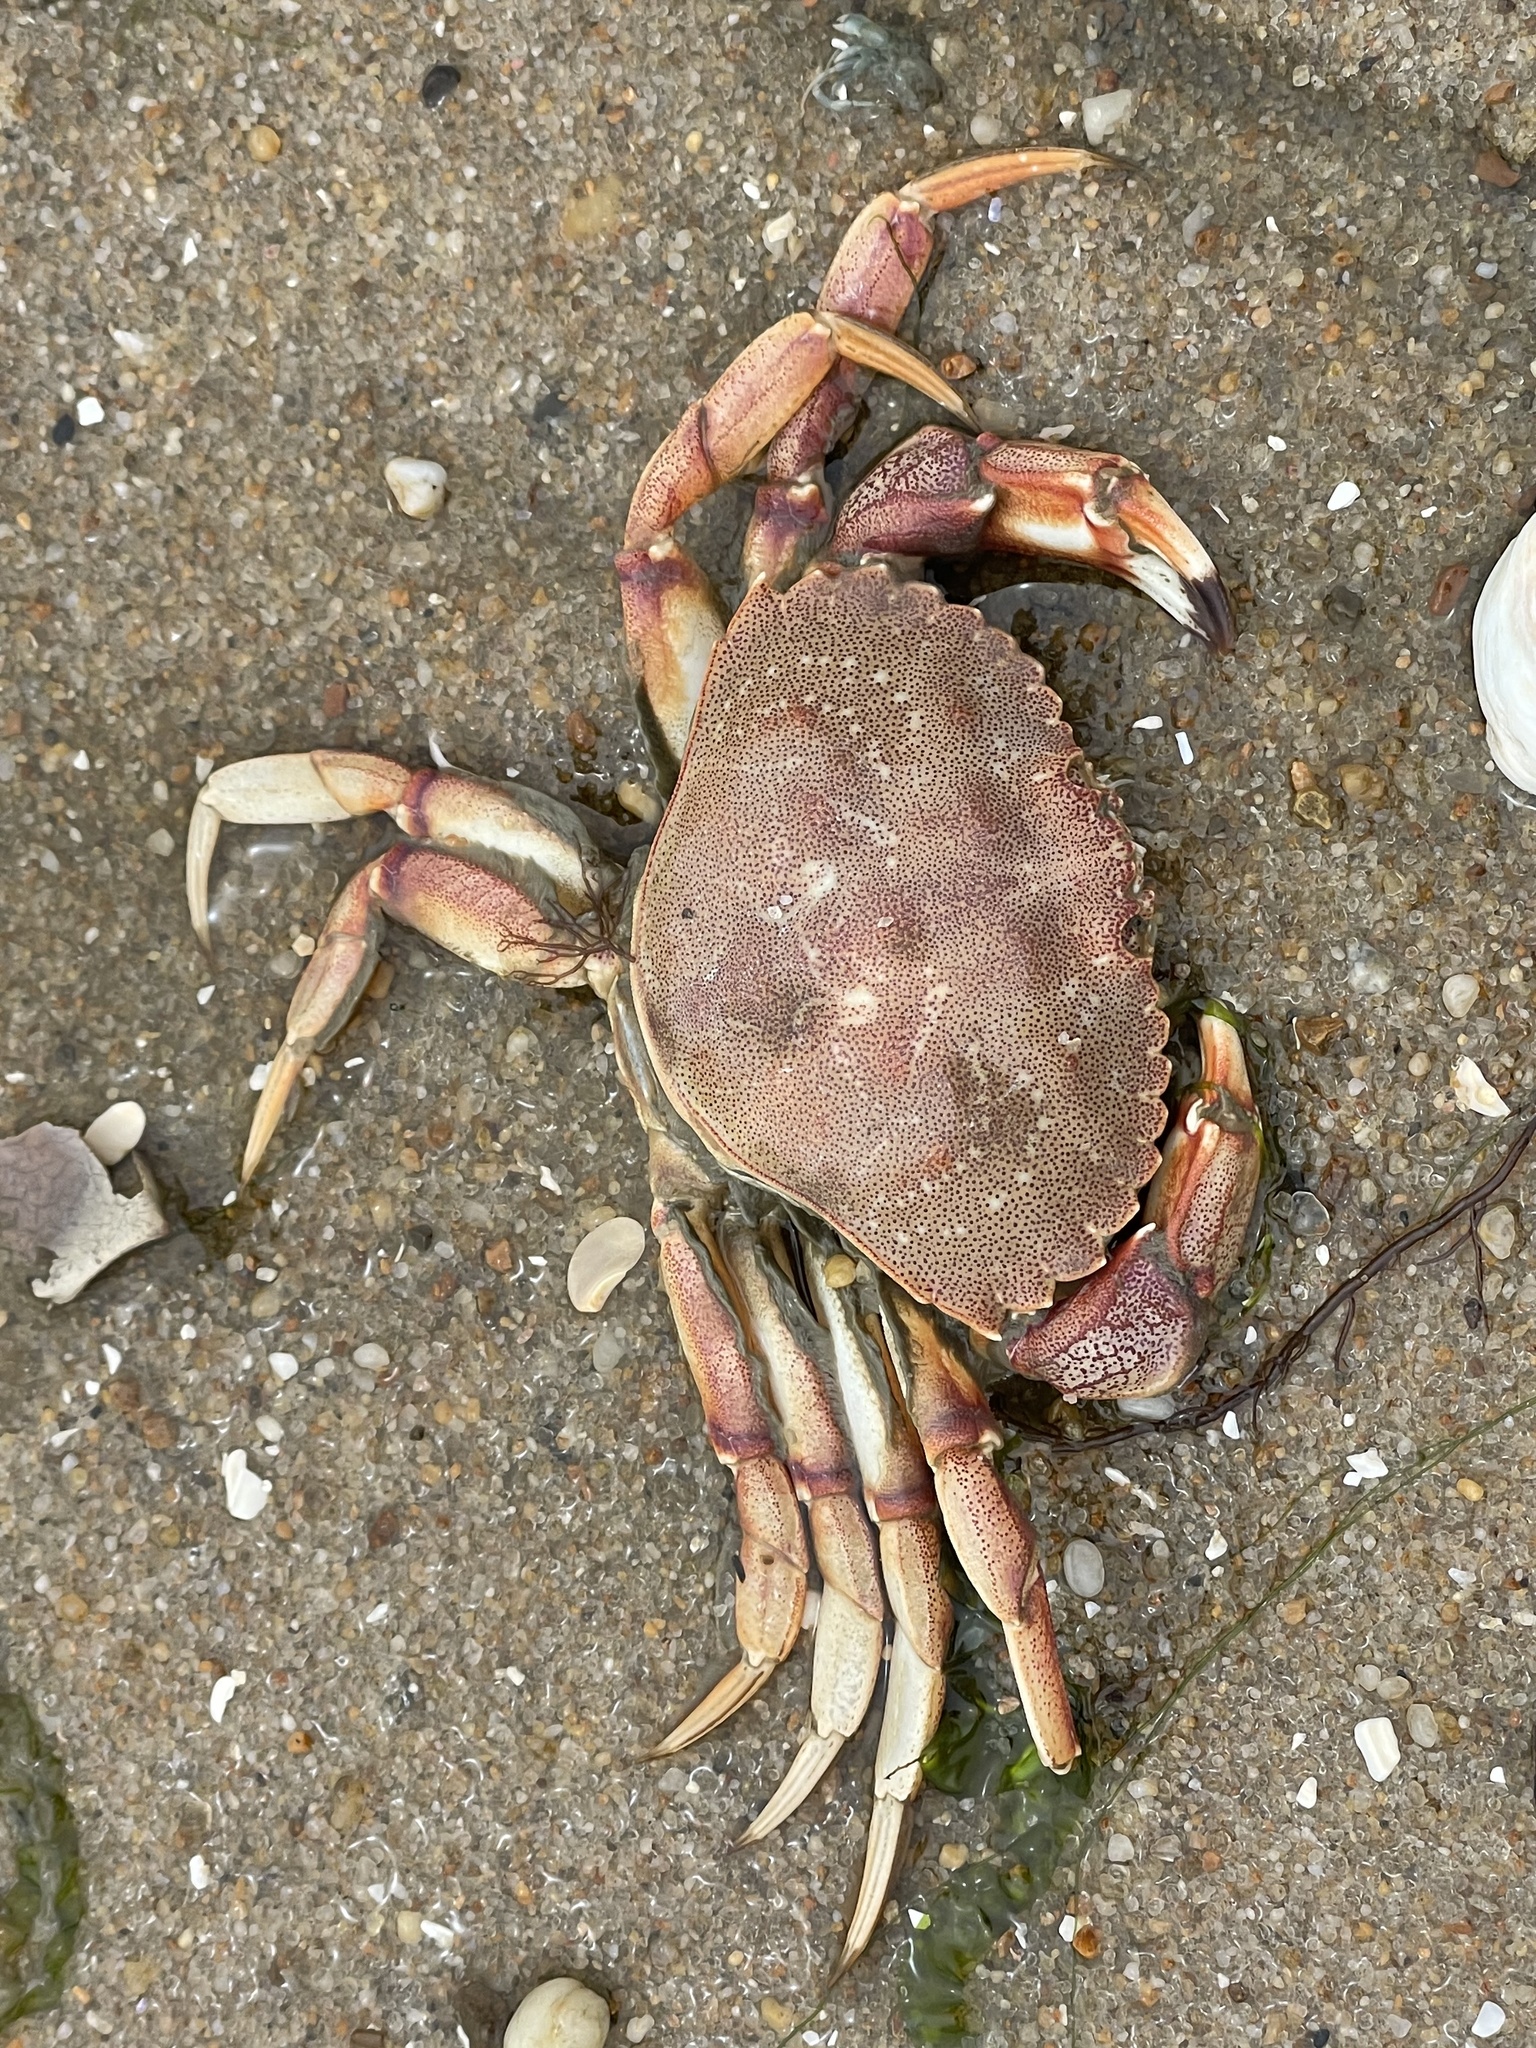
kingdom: Animalia
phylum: Arthropoda
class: Malacostraca
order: Decapoda
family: Cancridae
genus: Cancer
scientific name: Cancer irroratus
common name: Atlantic rock crab
